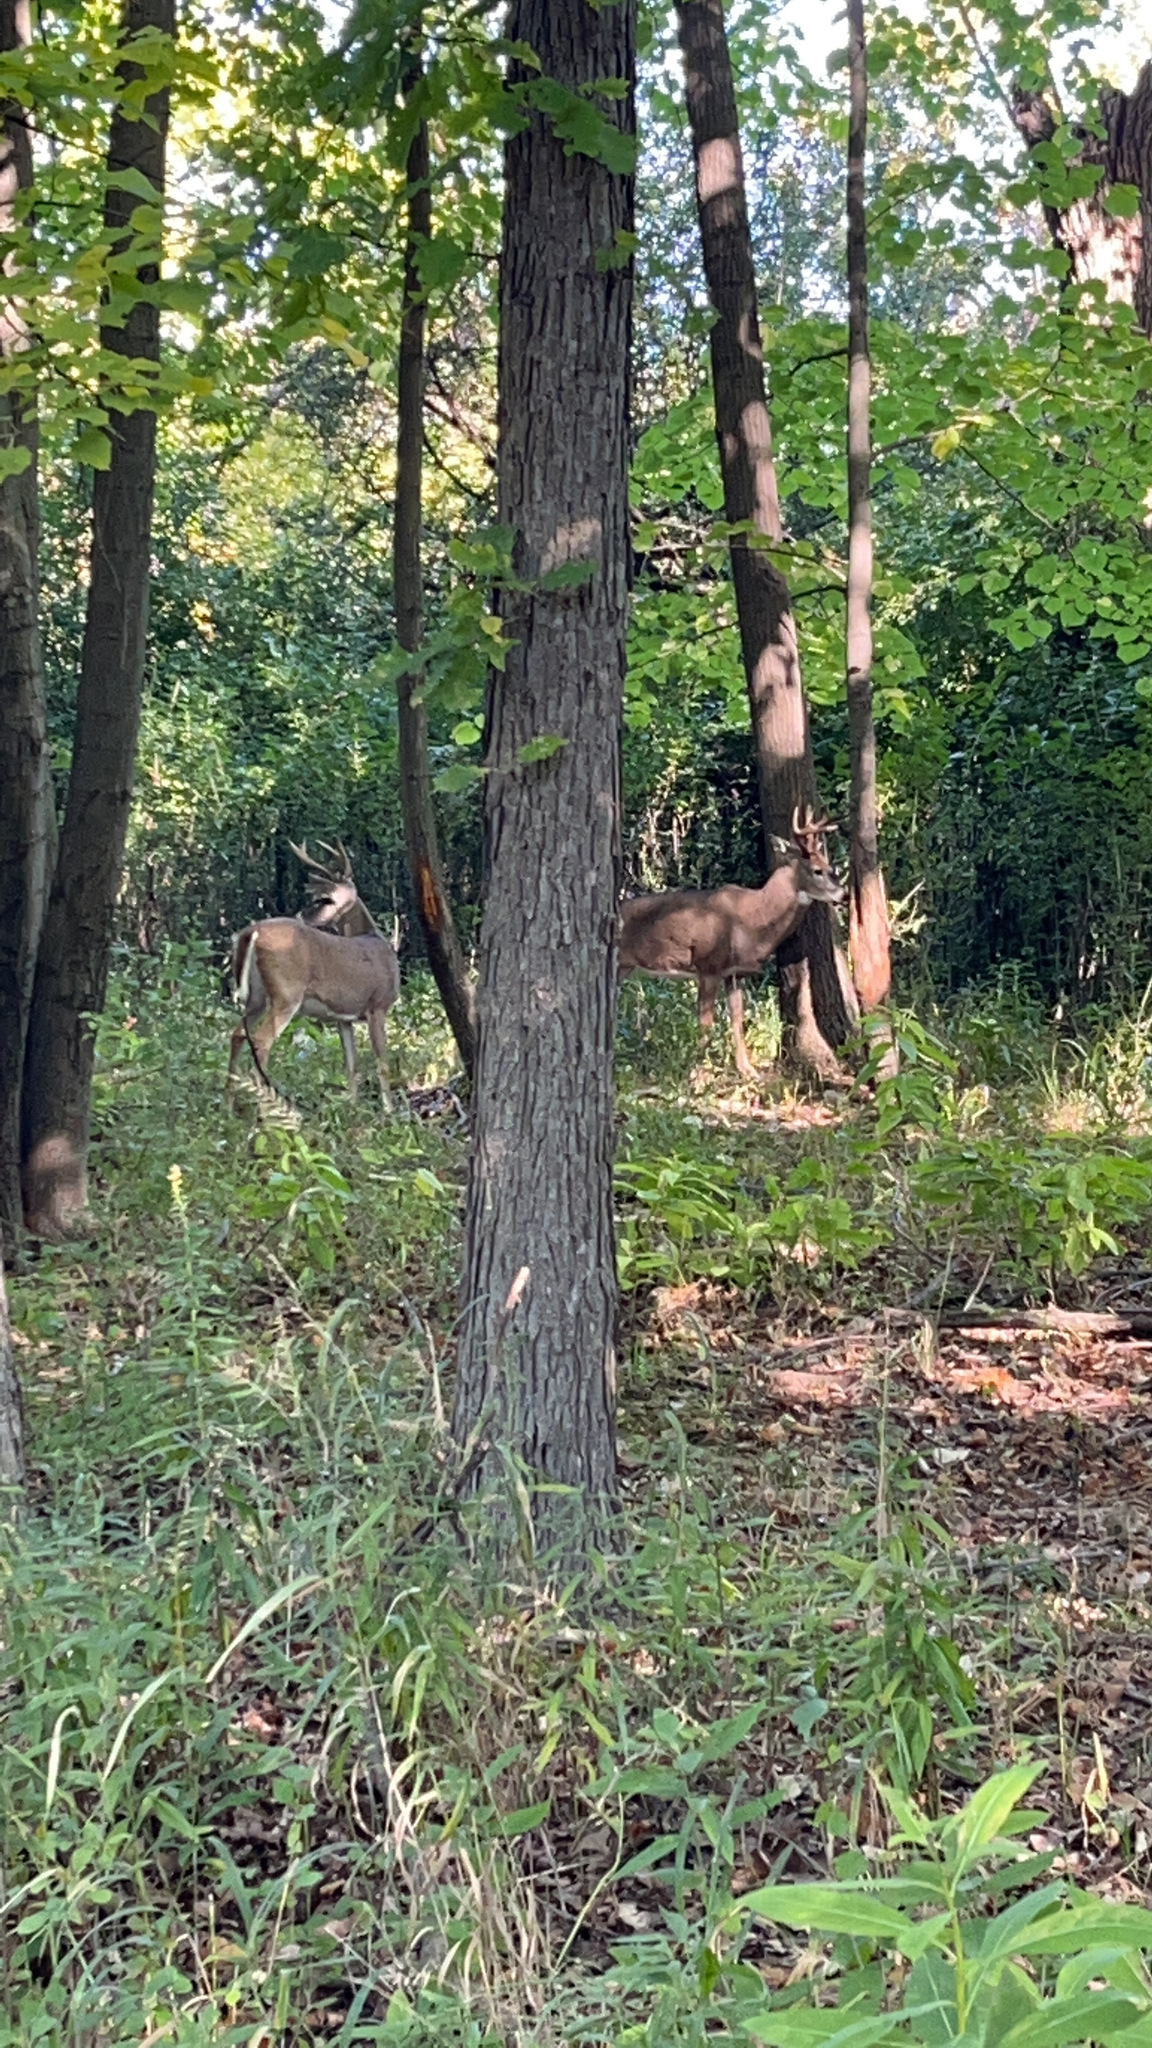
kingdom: Animalia
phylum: Chordata
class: Mammalia
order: Artiodactyla
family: Cervidae
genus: Odocoileus
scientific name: Odocoileus virginianus
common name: White-tailed deer
